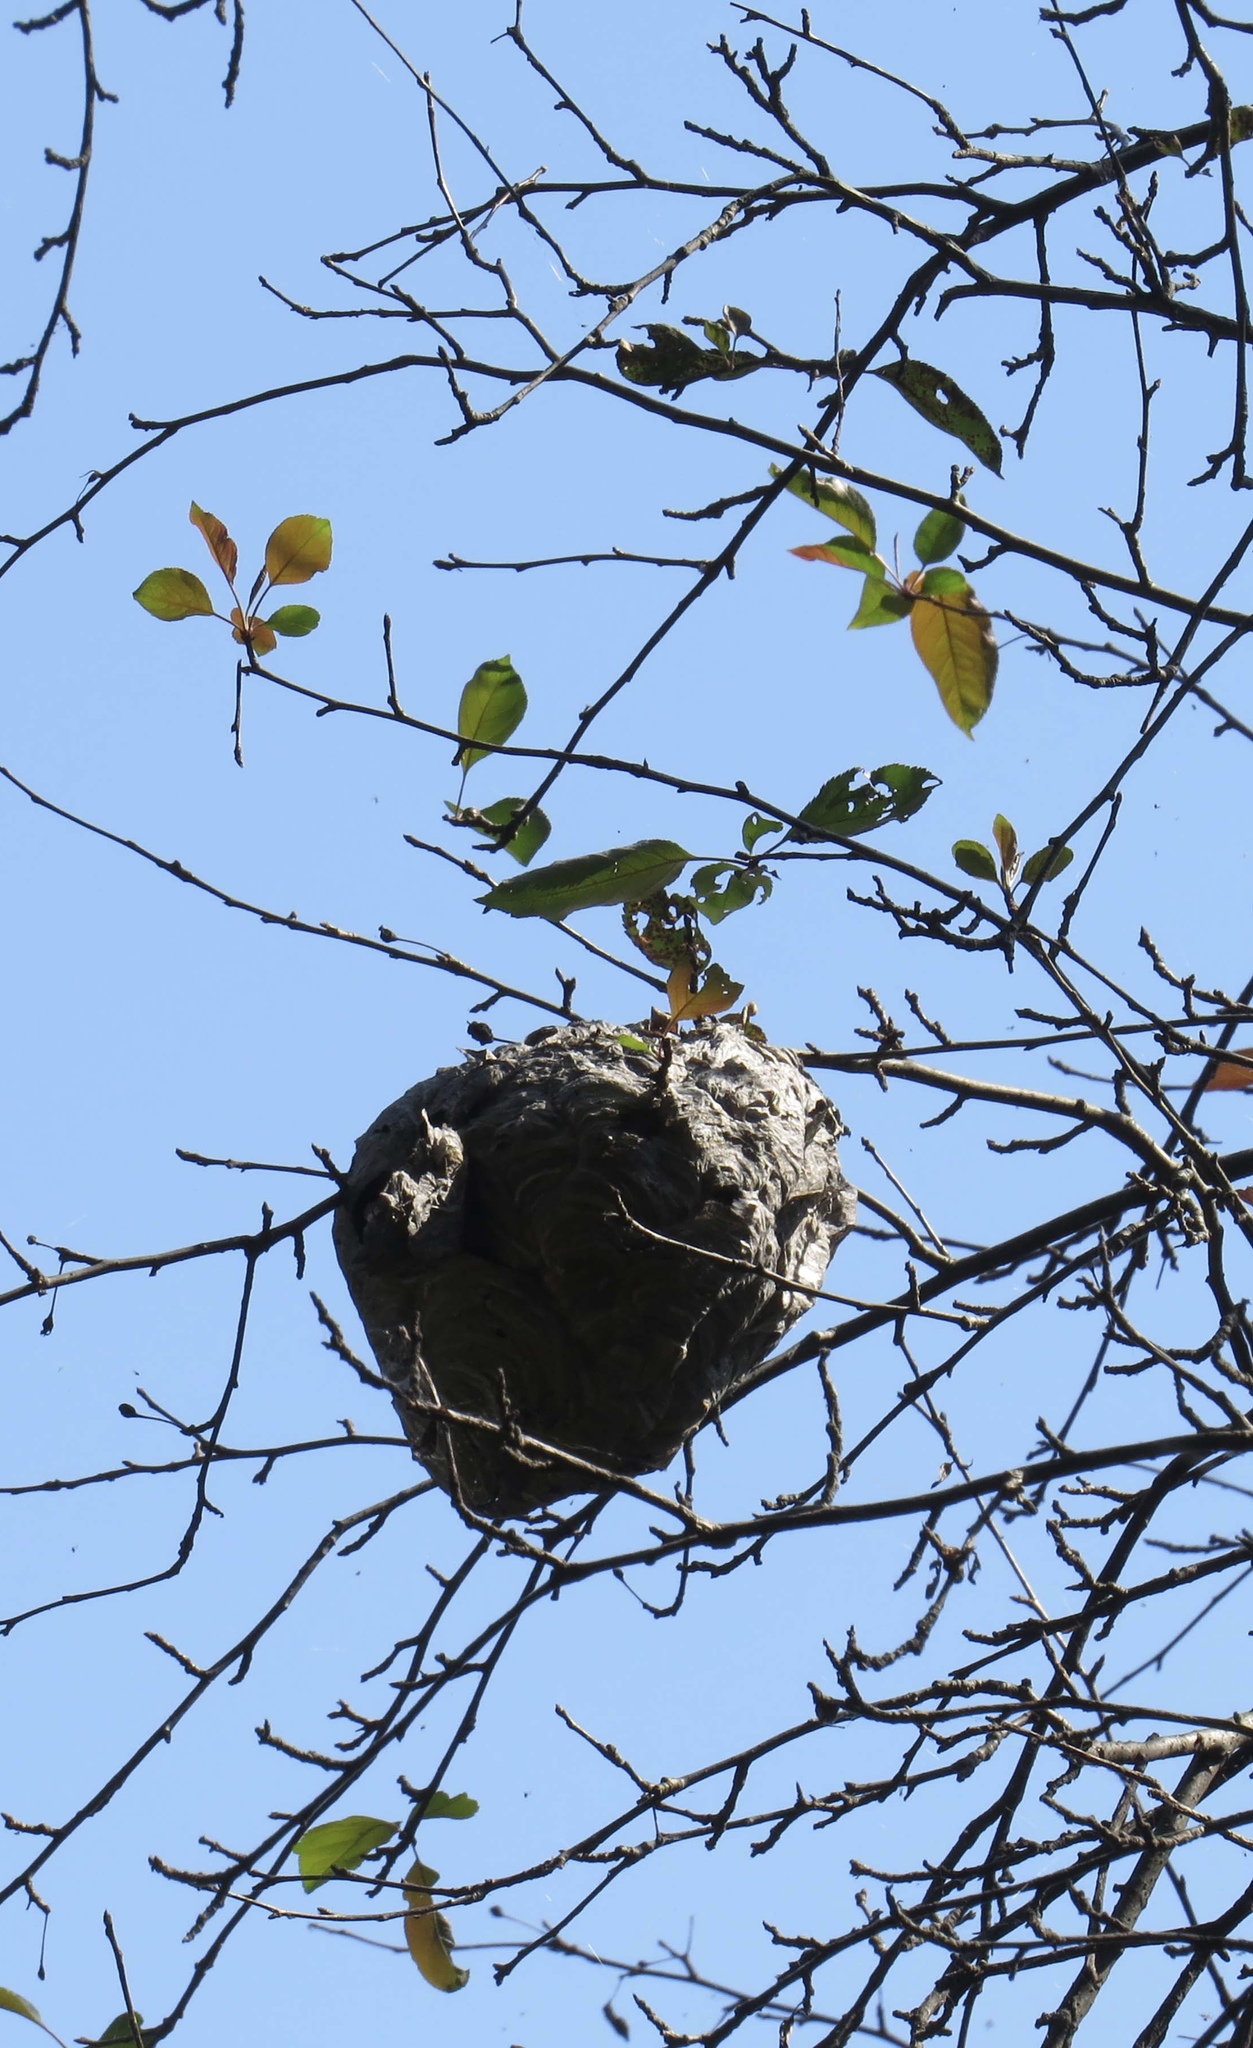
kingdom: Animalia
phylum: Arthropoda
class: Insecta
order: Hymenoptera
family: Vespidae
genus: Dolichovespula
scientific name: Dolichovespula maculata
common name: Bald-faced hornet
